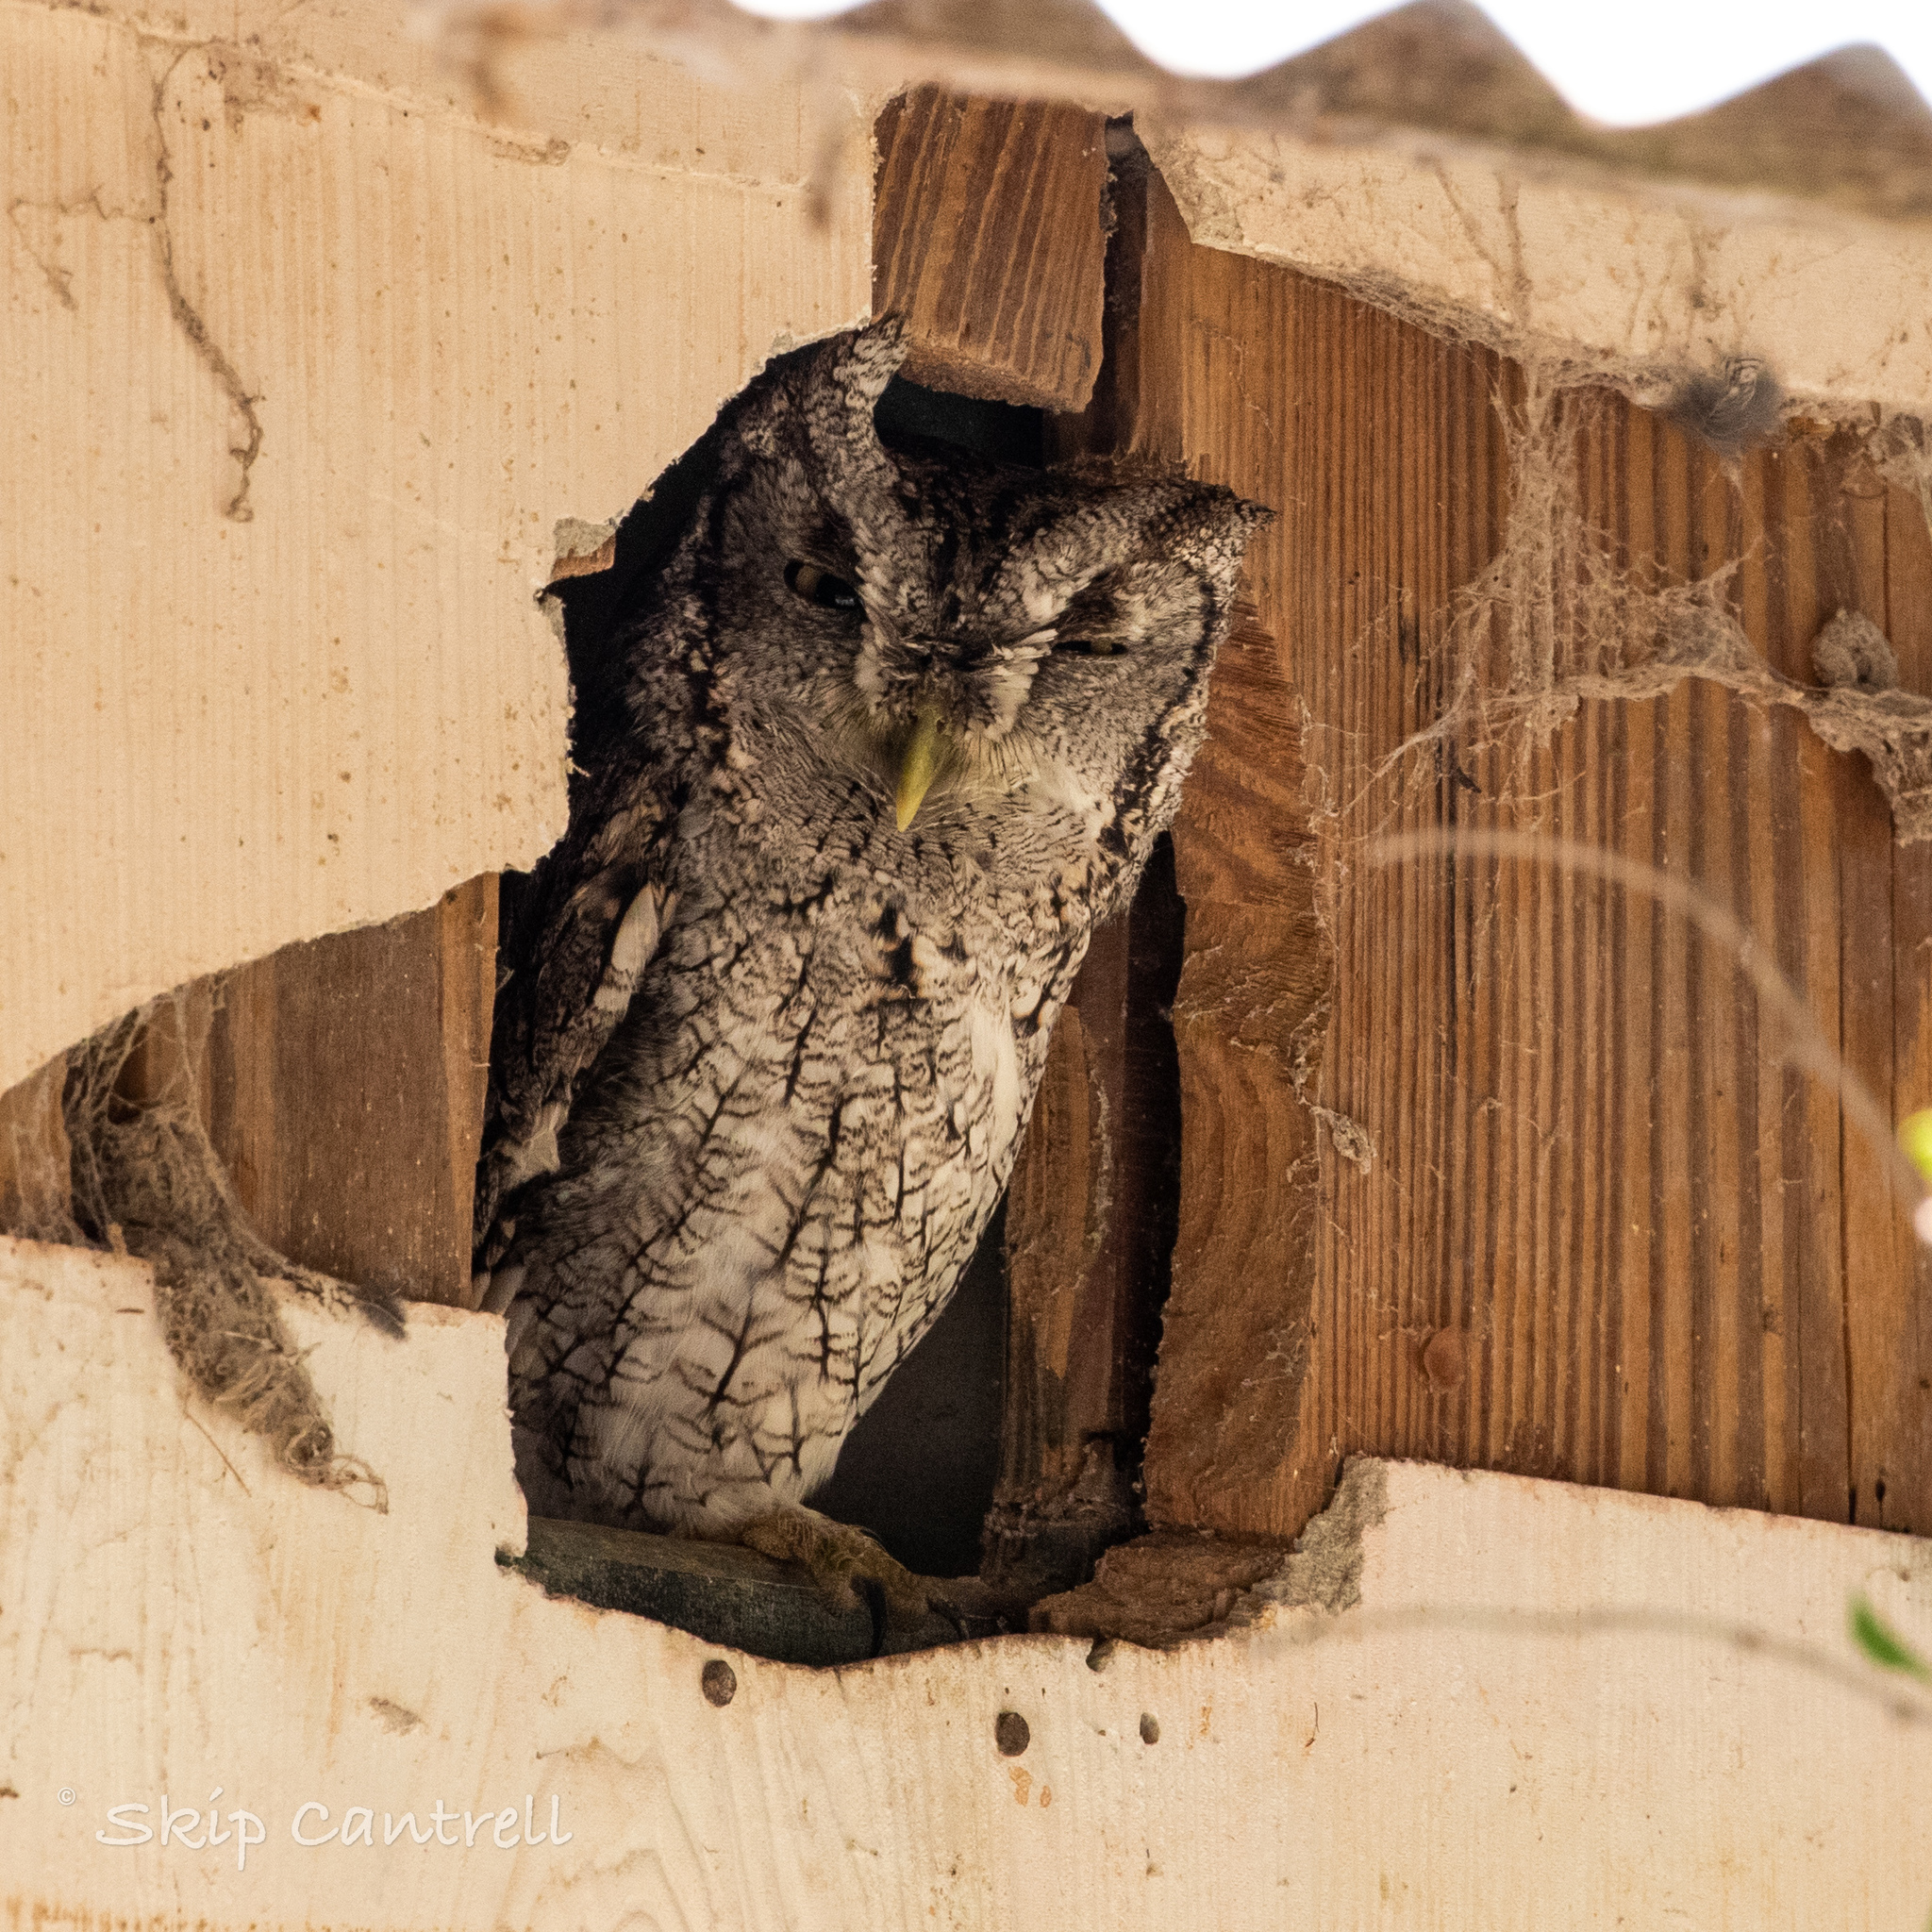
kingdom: Animalia
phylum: Chordata
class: Aves
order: Strigiformes
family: Strigidae
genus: Megascops
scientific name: Megascops asio
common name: Eastern screech-owl
